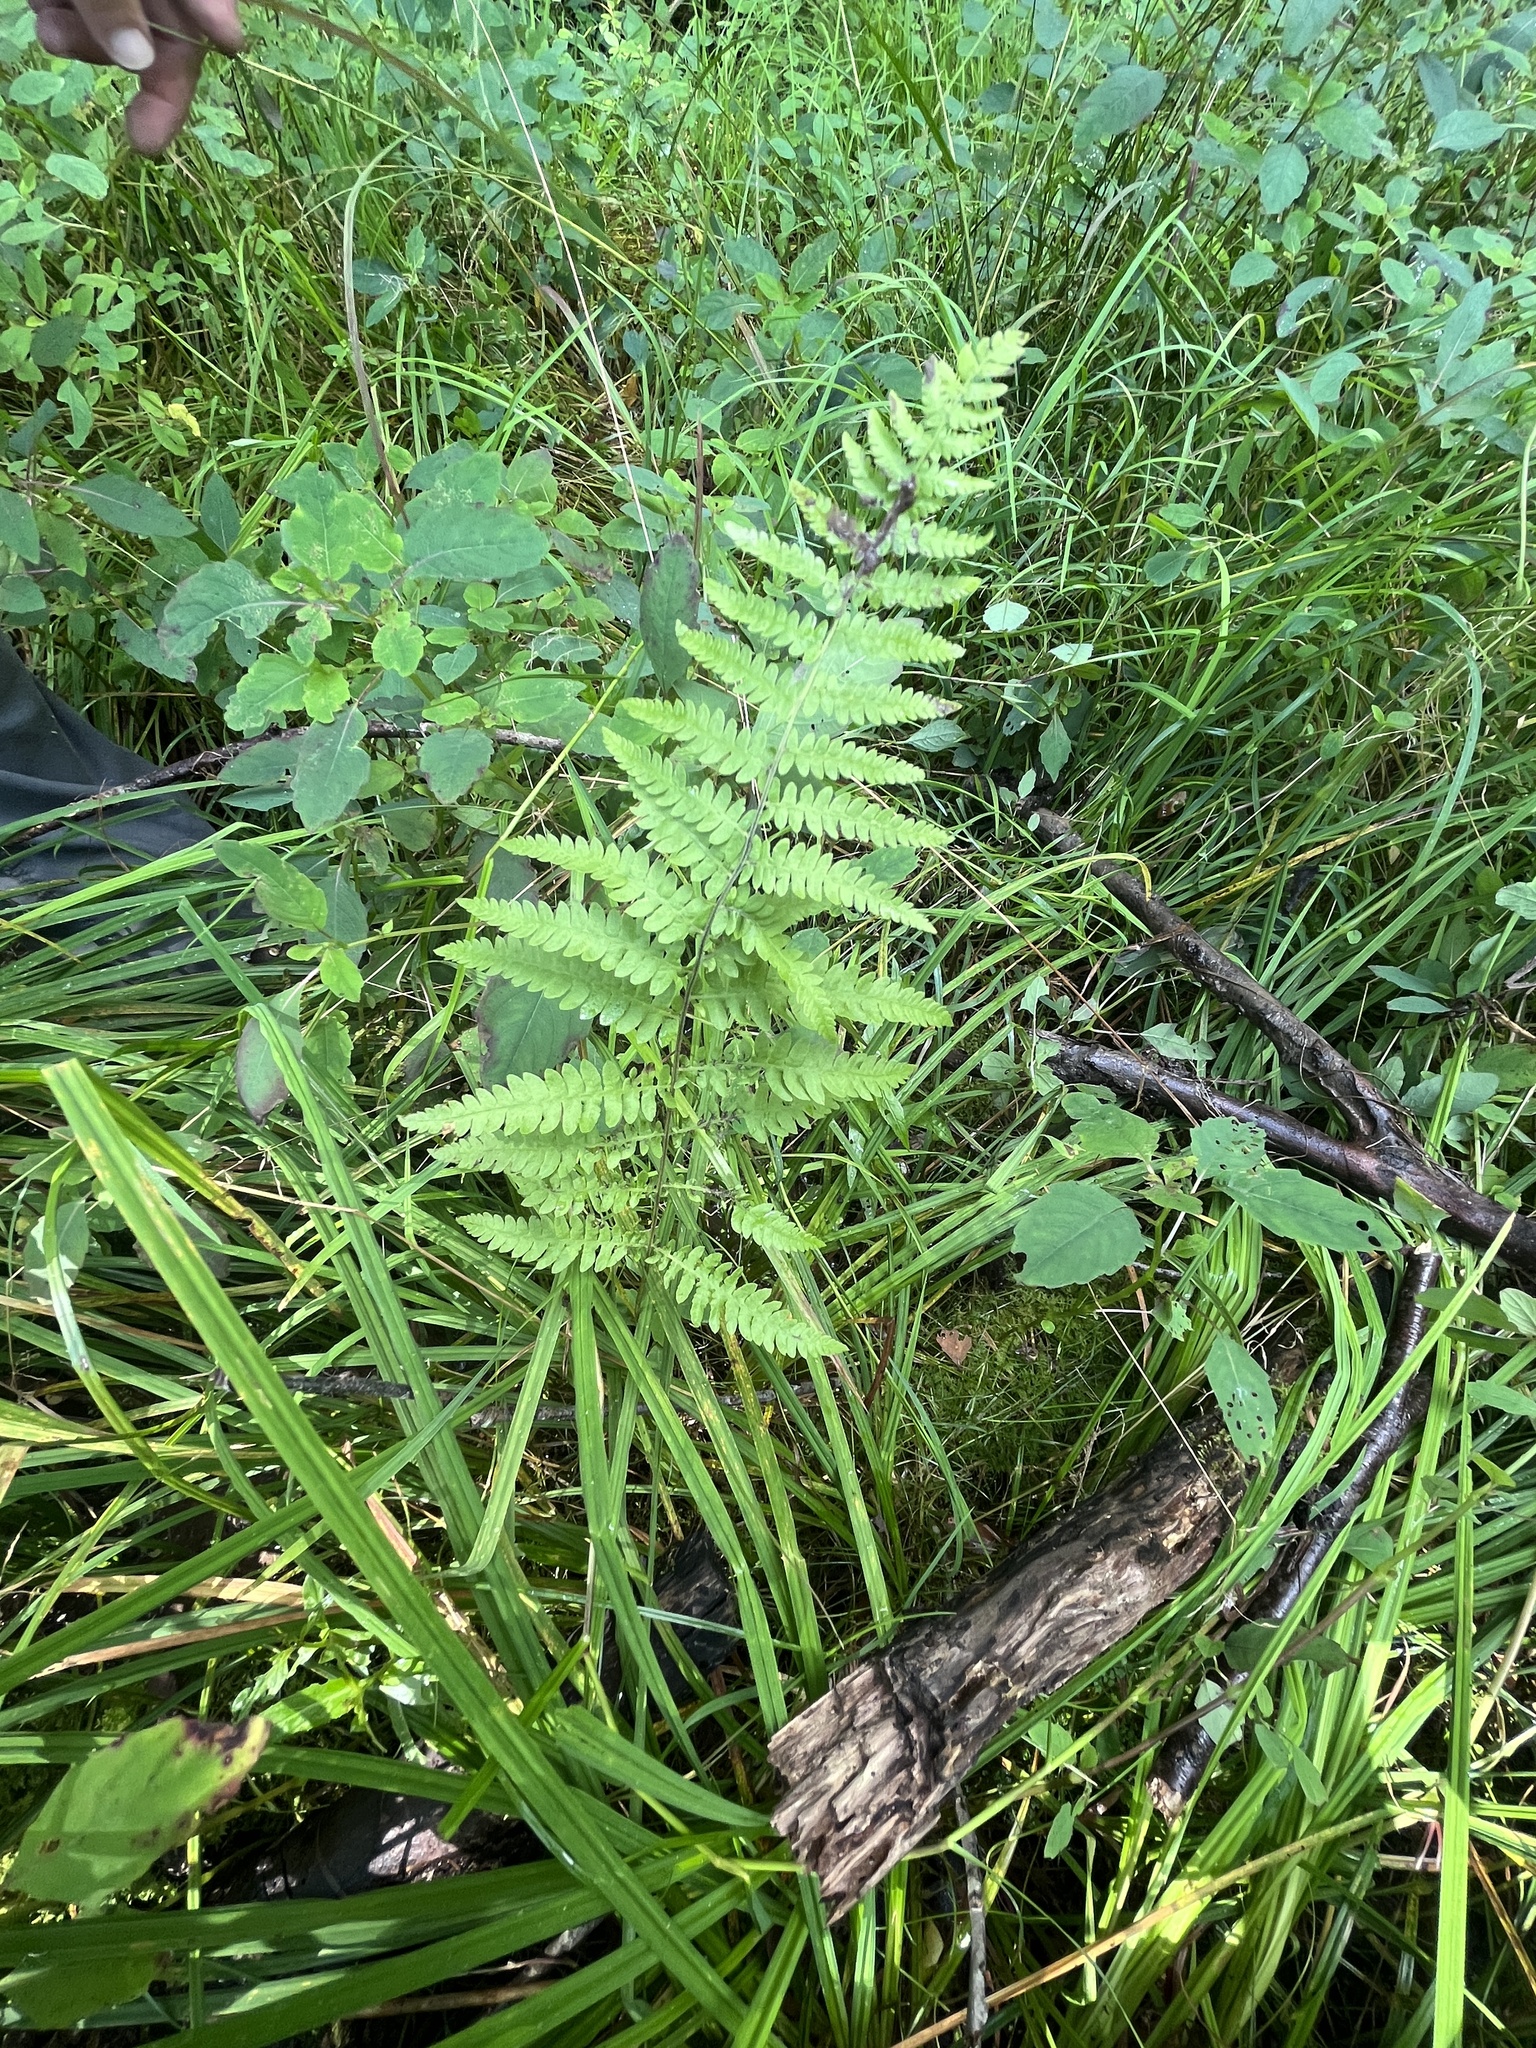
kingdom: Plantae
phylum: Tracheophyta
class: Polypodiopsida
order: Polypodiales
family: Thelypteridaceae
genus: Thelypteris
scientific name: Thelypteris palustris
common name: Marsh fern
